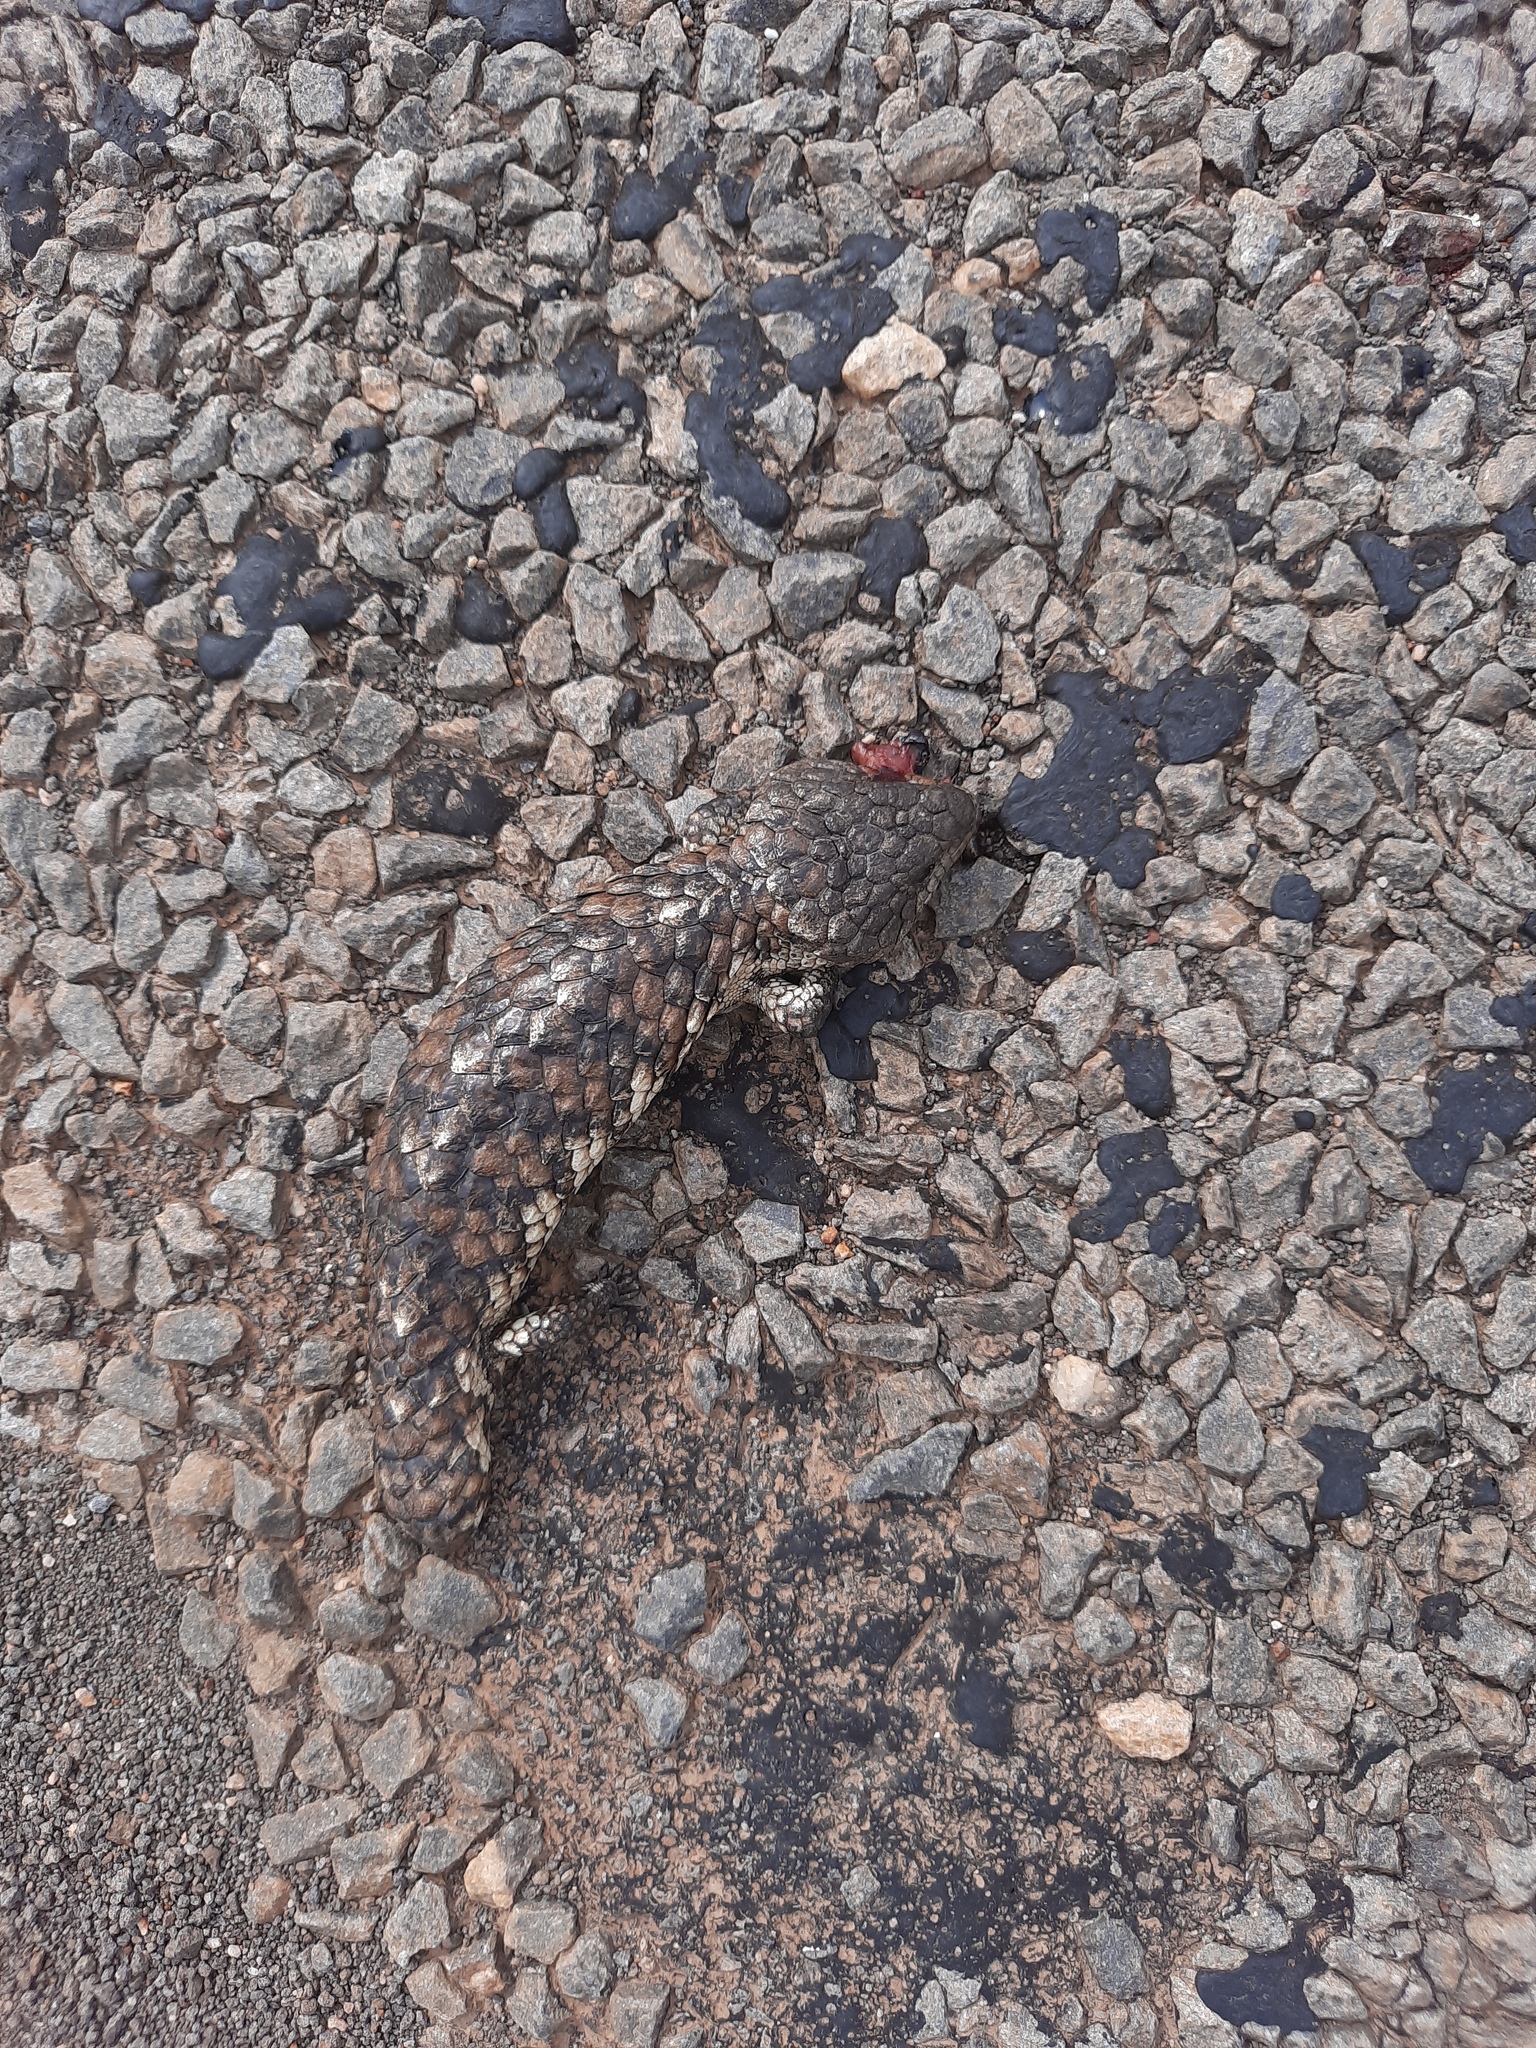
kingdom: Animalia
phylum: Chordata
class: Squamata
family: Scincidae
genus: Tiliqua
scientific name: Tiliqua rugosa
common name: Pinecone lizard
